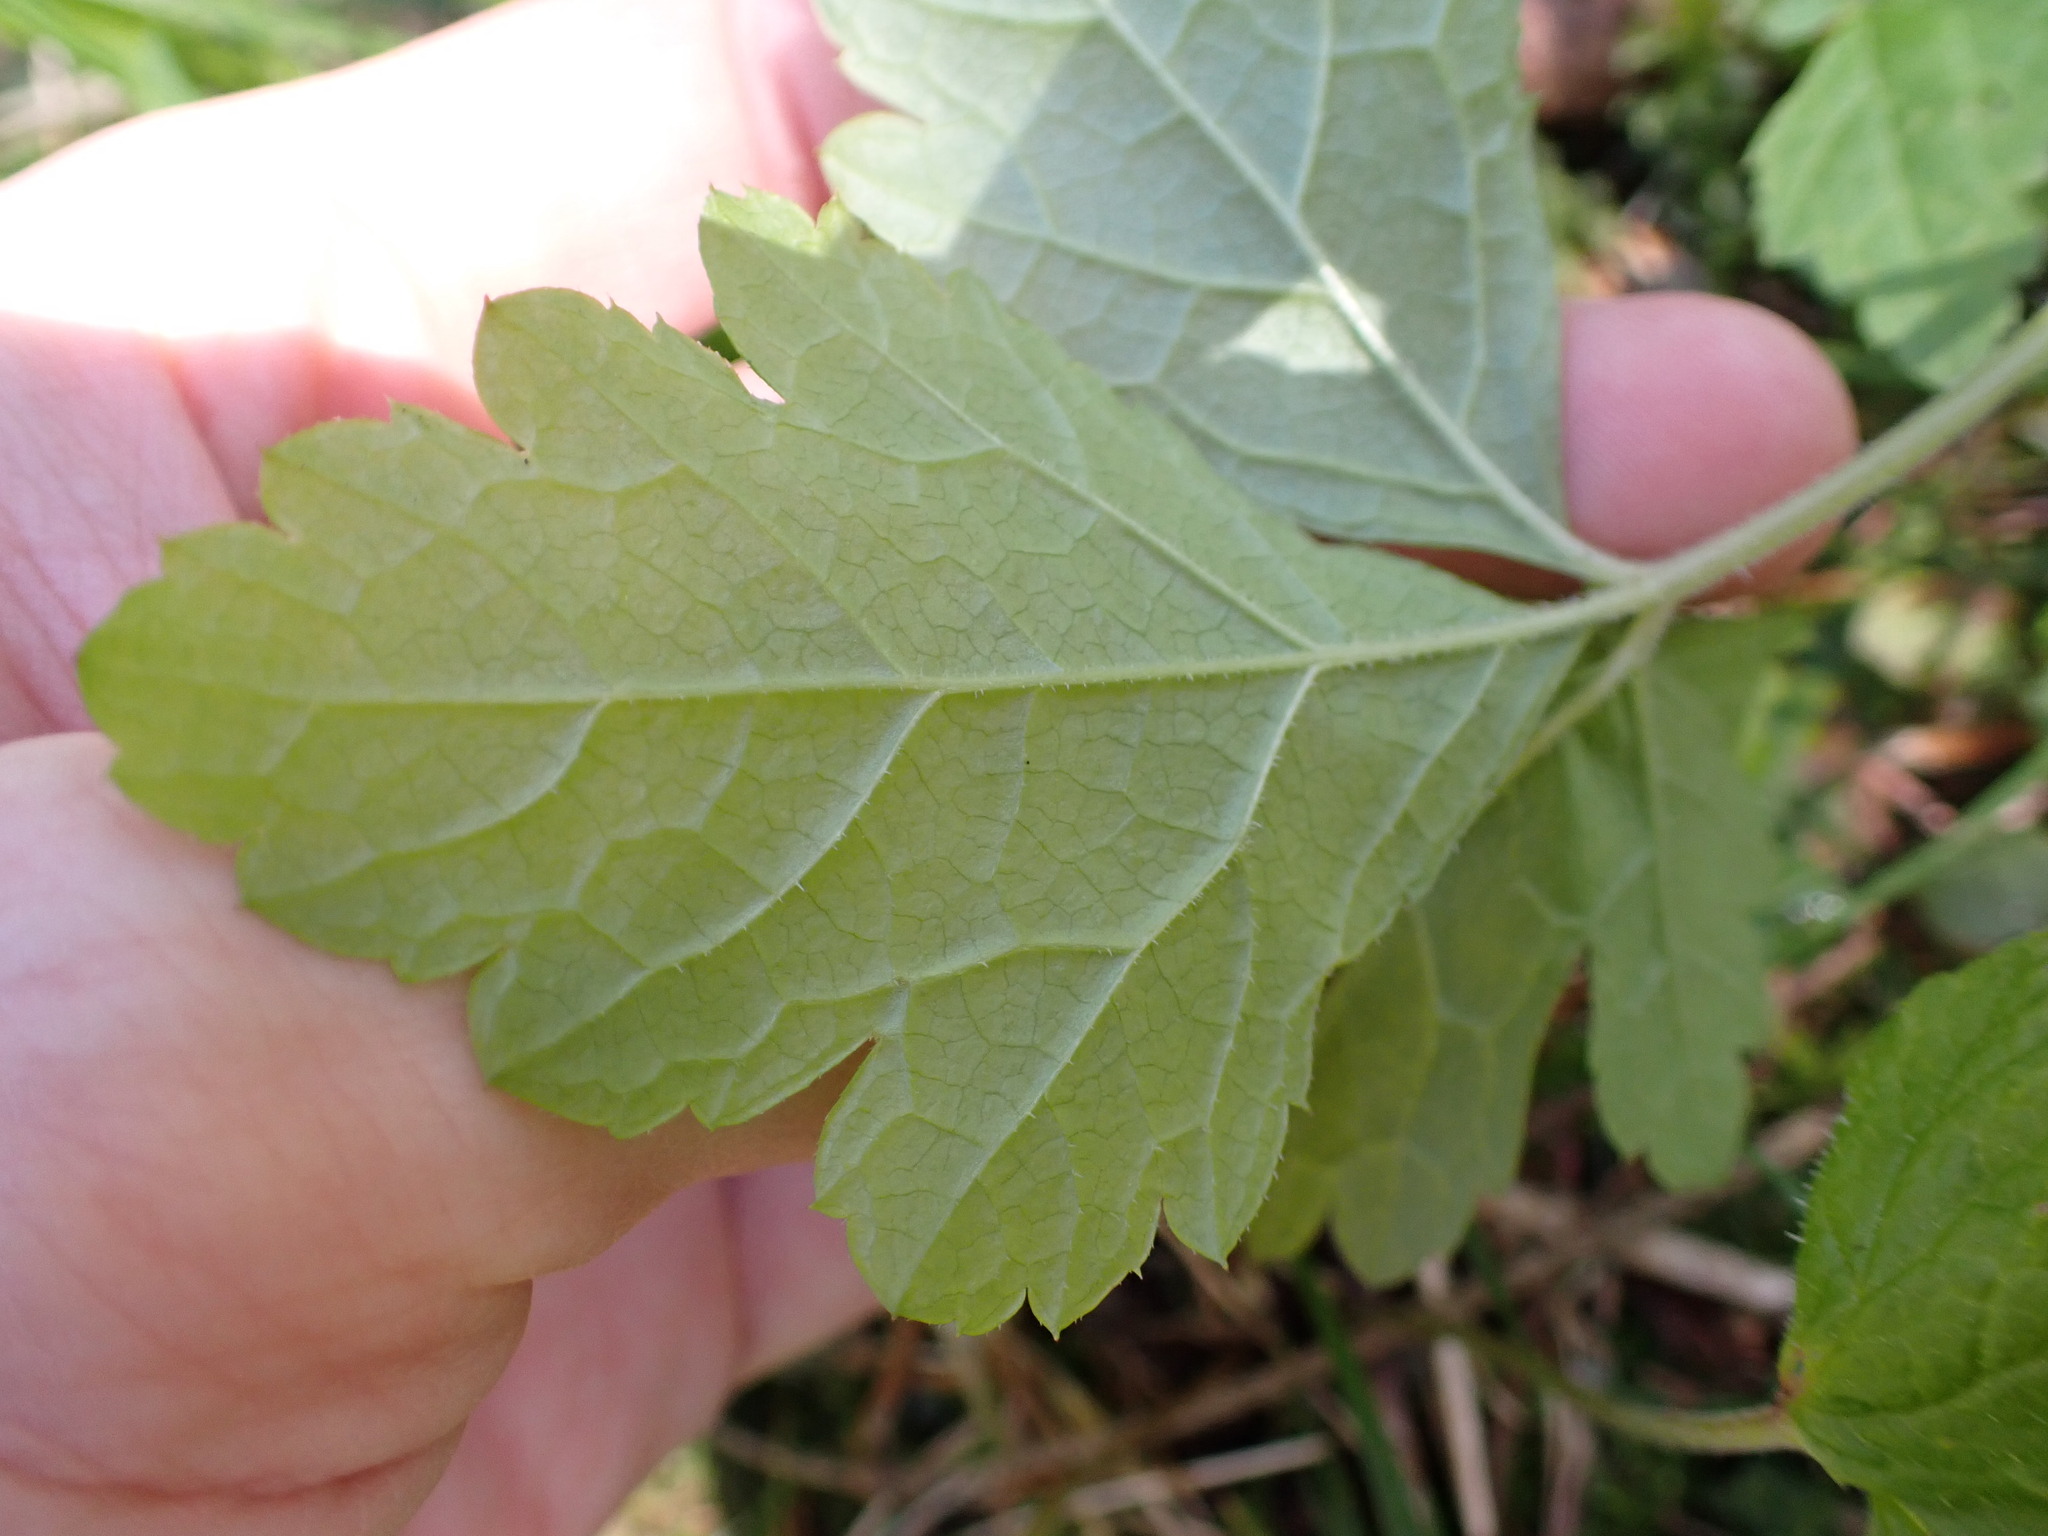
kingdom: Plantae
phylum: Tracheophyta
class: Magnoliopsida
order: Saxifragales
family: Saxifragaceae
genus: Tiarella
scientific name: Tiarella trifoliata
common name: Sugar-scoop
